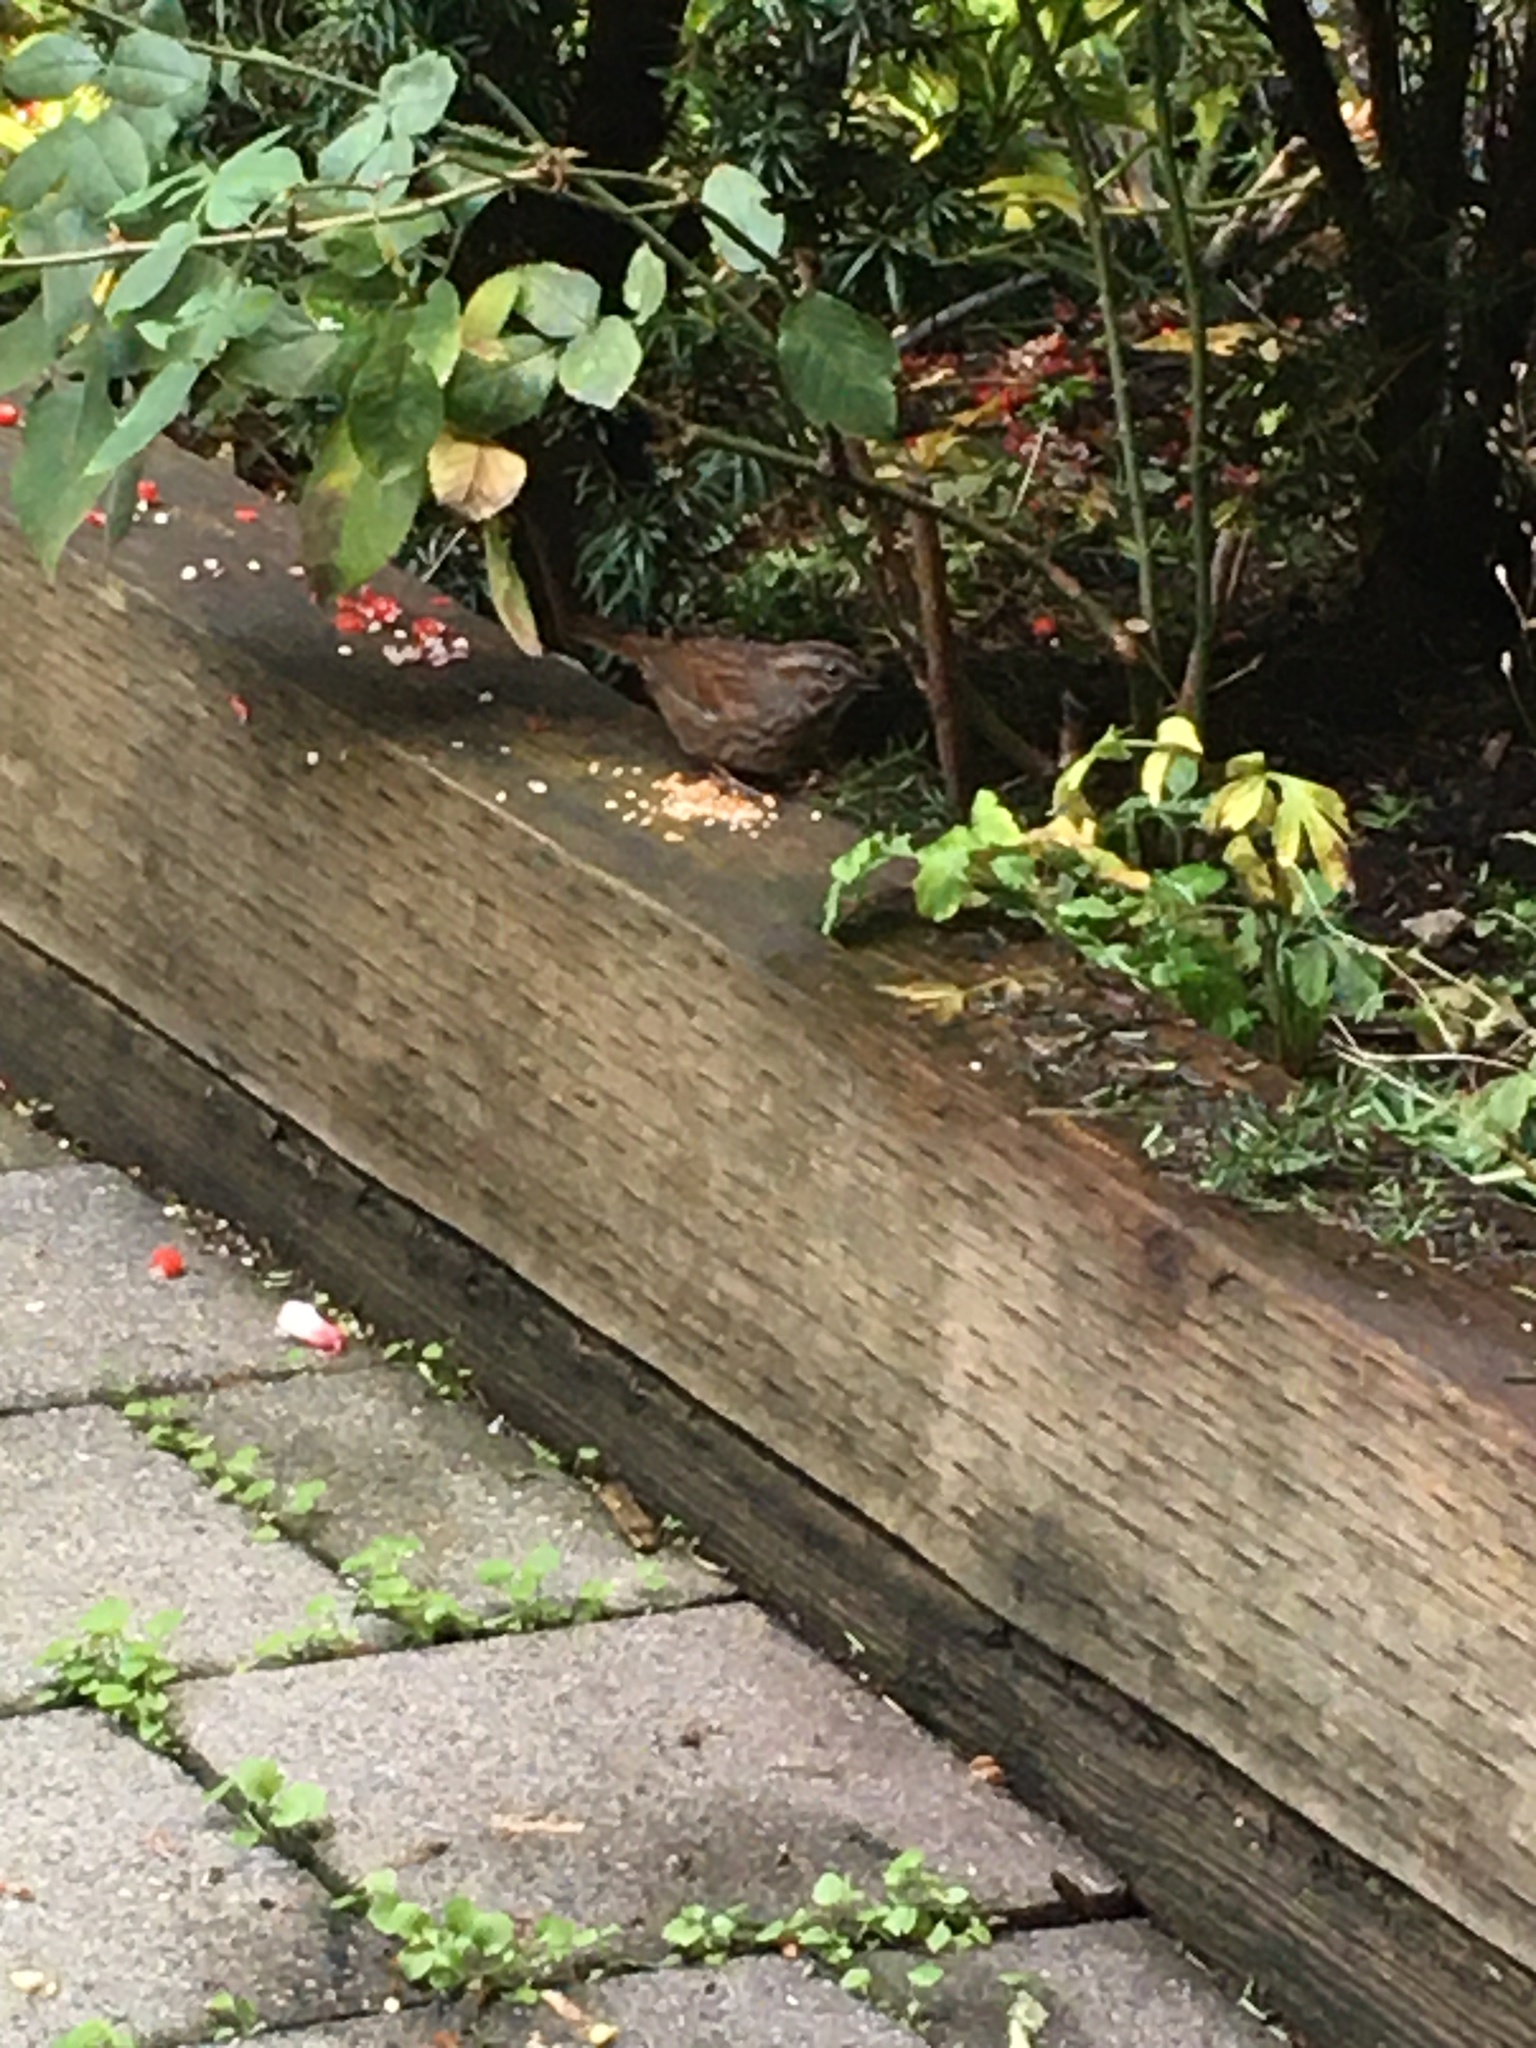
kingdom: Animalia
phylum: Chordata
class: Aves
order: Passeriformes
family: Passerellidae
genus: Melospiza
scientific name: Melospiza melodia
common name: Song sparrow
